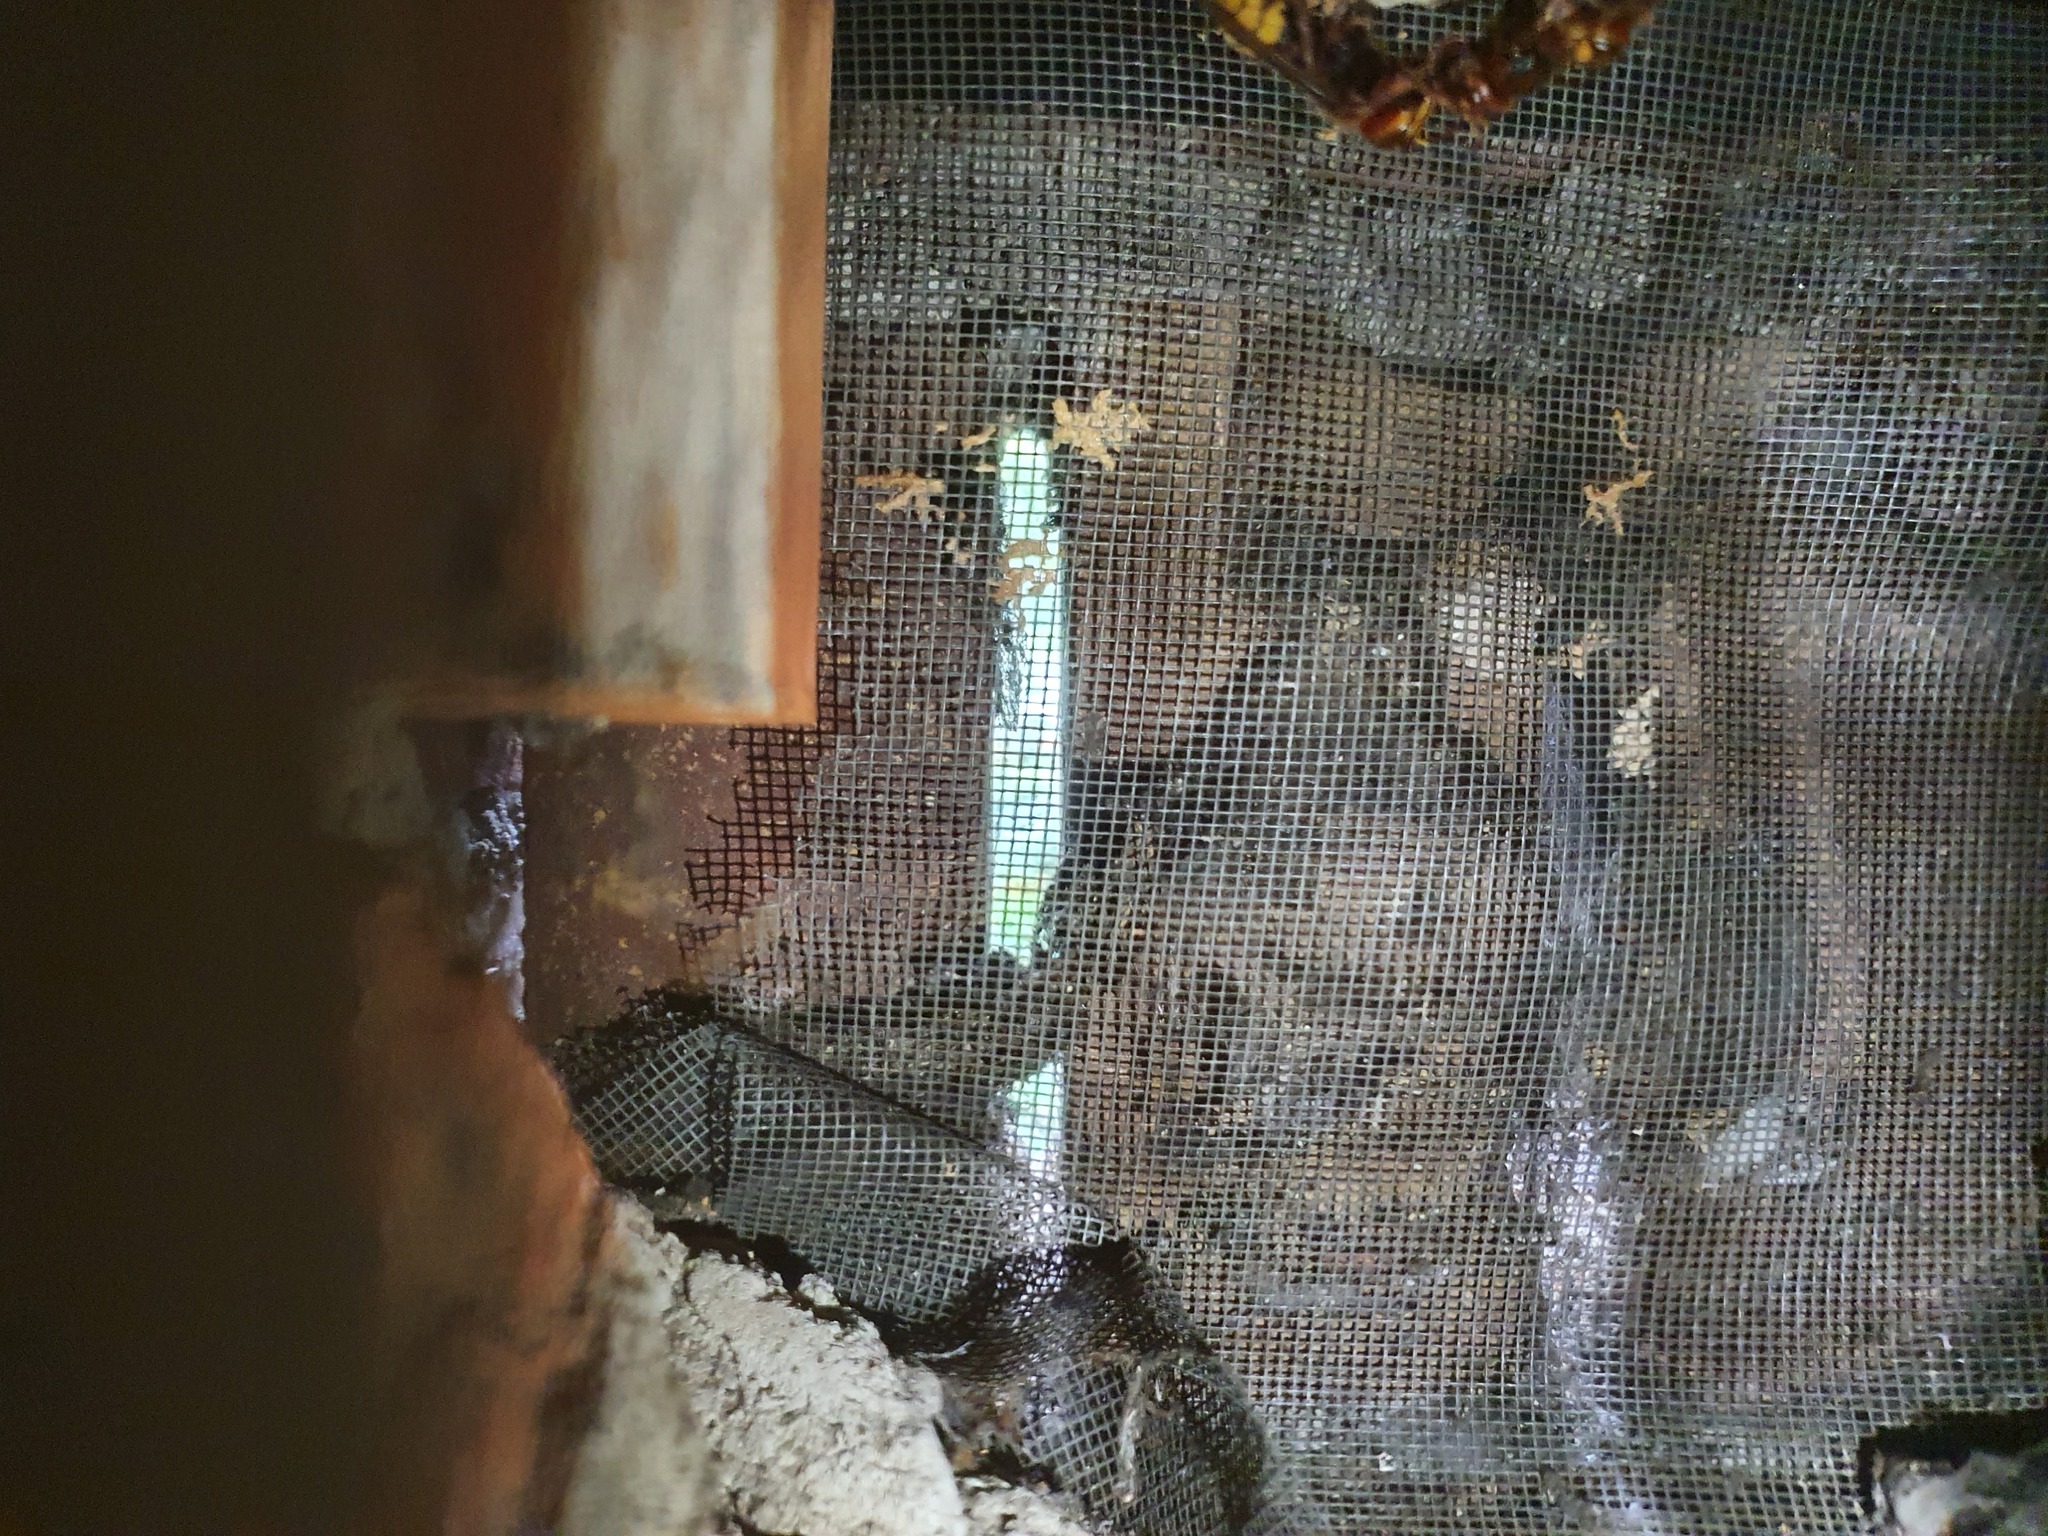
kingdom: Animalia
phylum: Arthropoda
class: Insecta
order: Hymenoptera
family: Vespidae
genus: Vespa
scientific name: Vespa crabro
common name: Hornet
